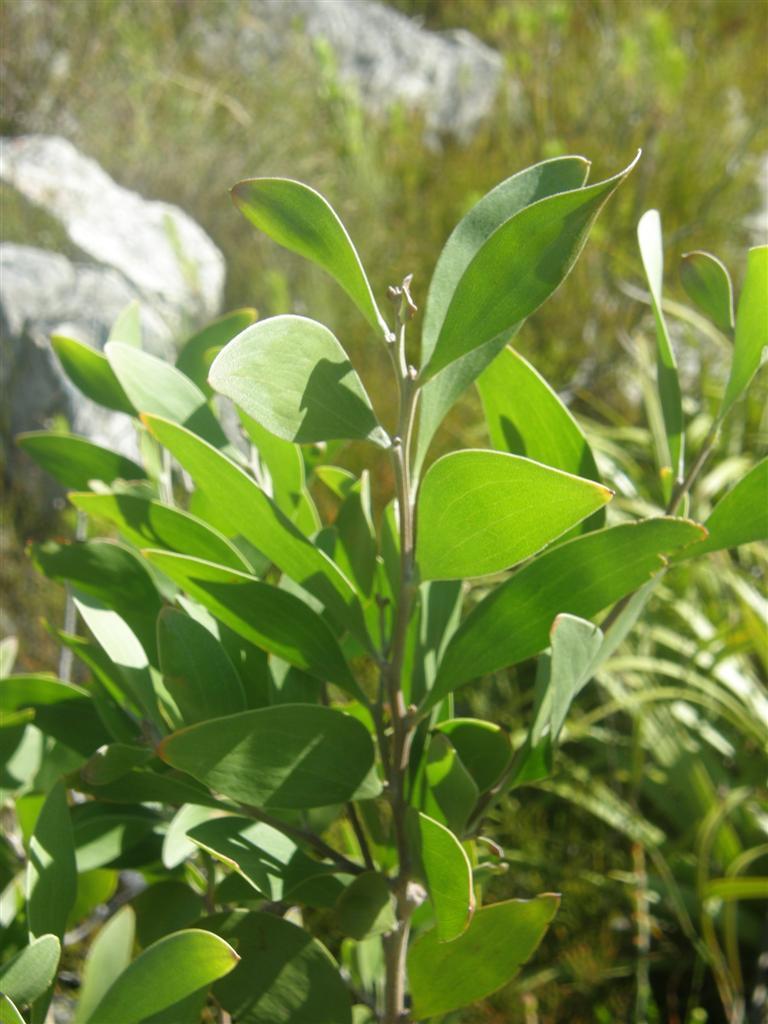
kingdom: Plantae
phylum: Tracheophyta
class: Magnoliopsida
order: Fabales
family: Fabaceae
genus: Acacia
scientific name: Acacia melanoxylon
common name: Blackwood
